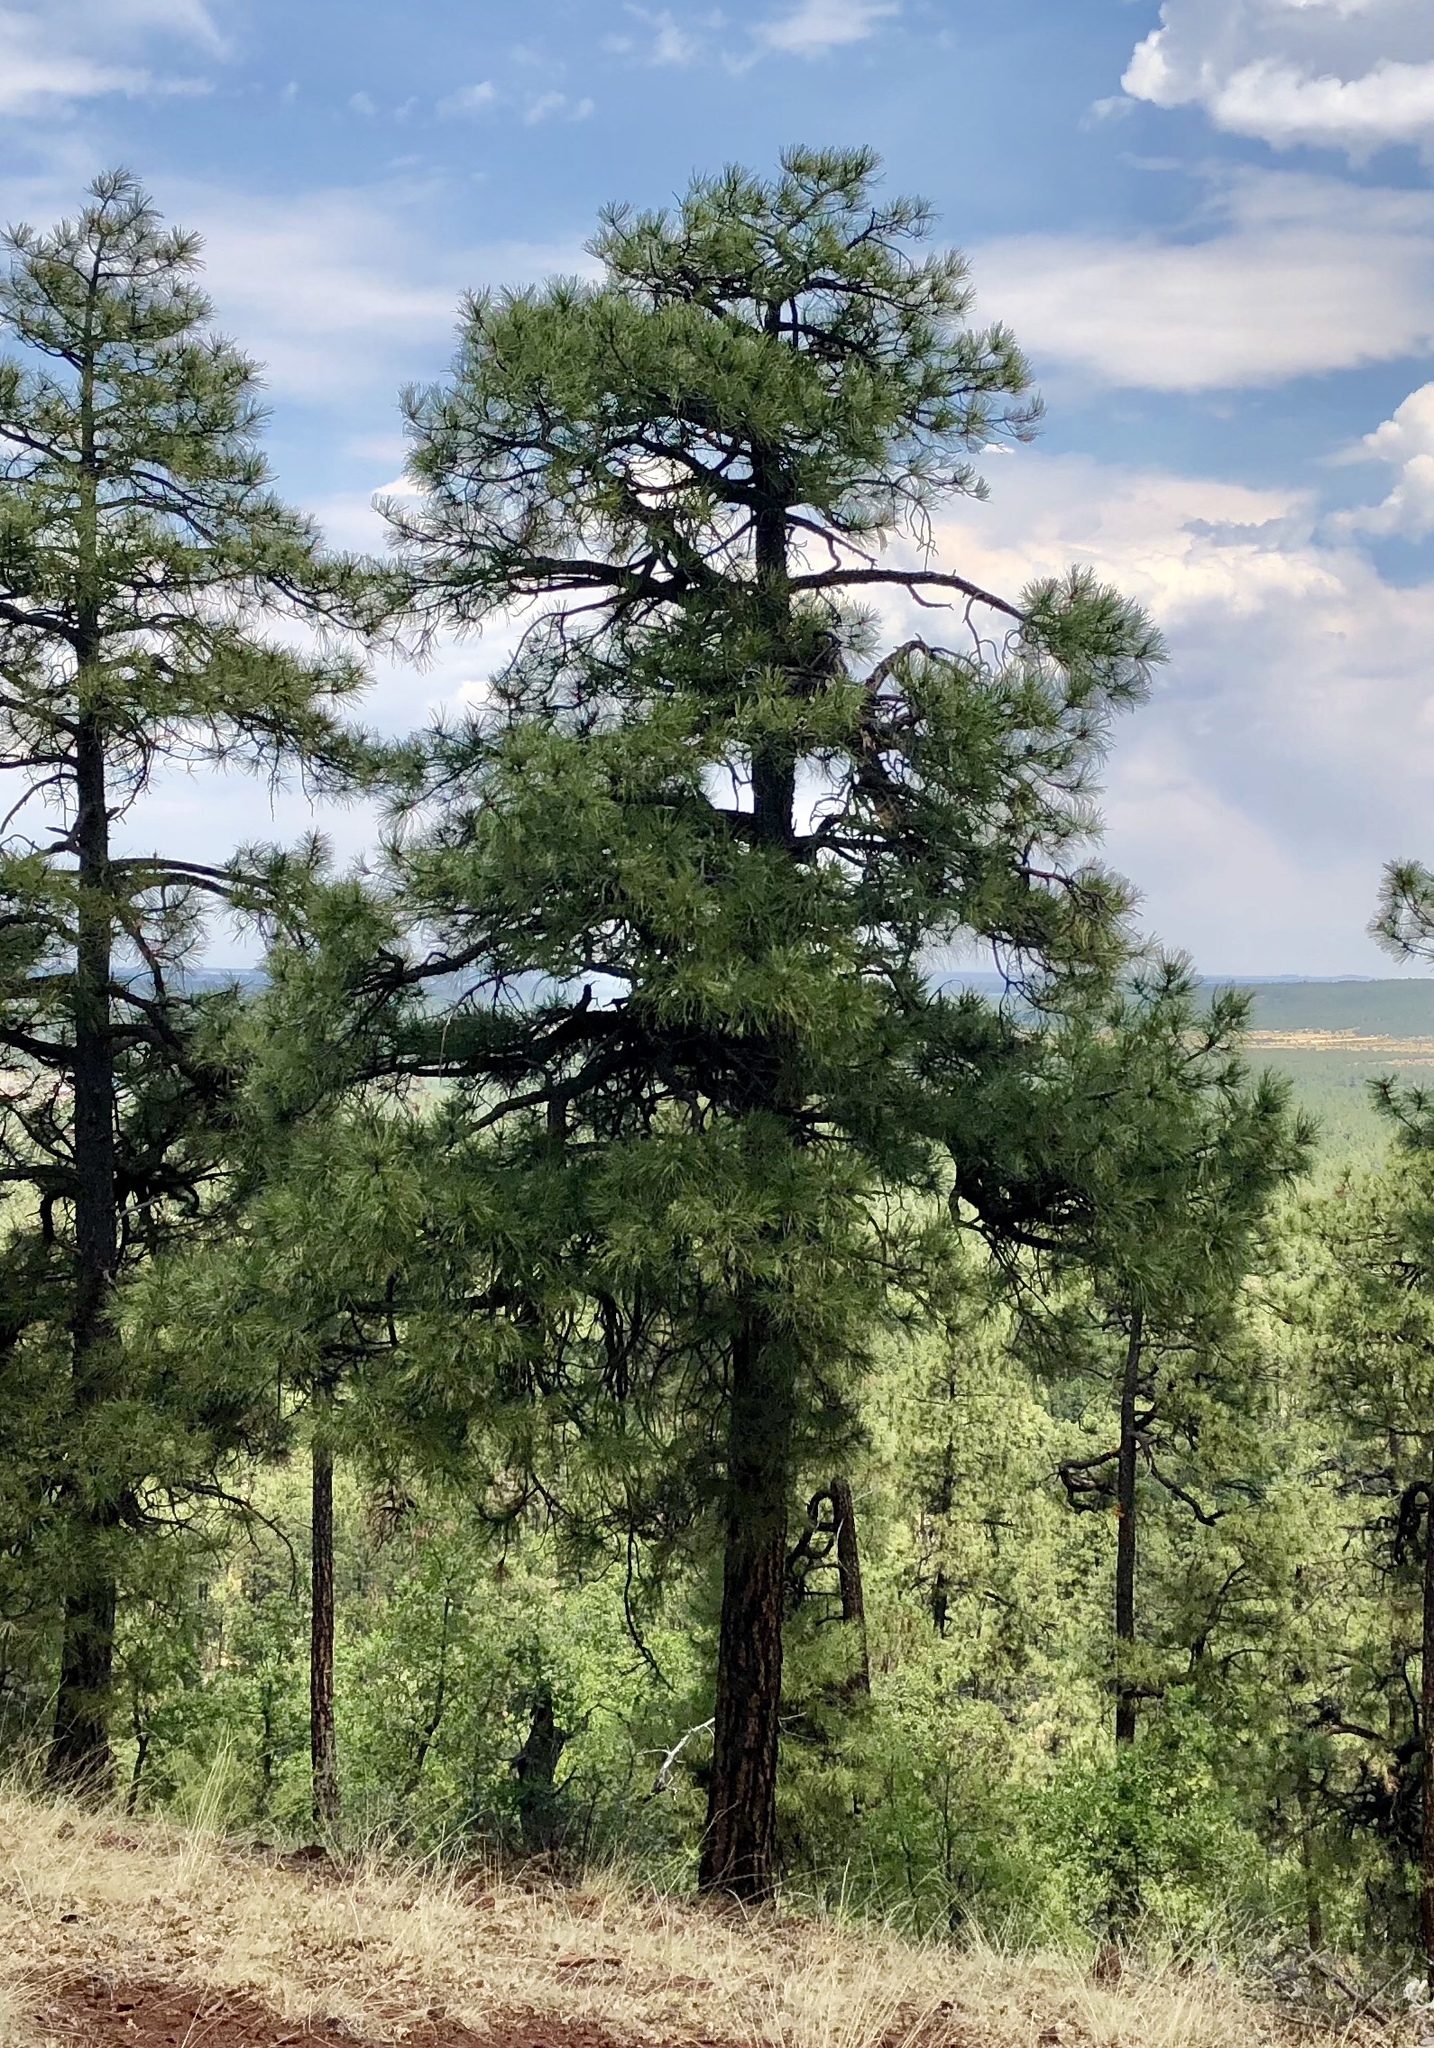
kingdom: Plantae
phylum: Tracheophyta
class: Pinopsida
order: Pinales
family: Pinaceae
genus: Pinus
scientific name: Pinus ponderosa
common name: Western yellow-pine
